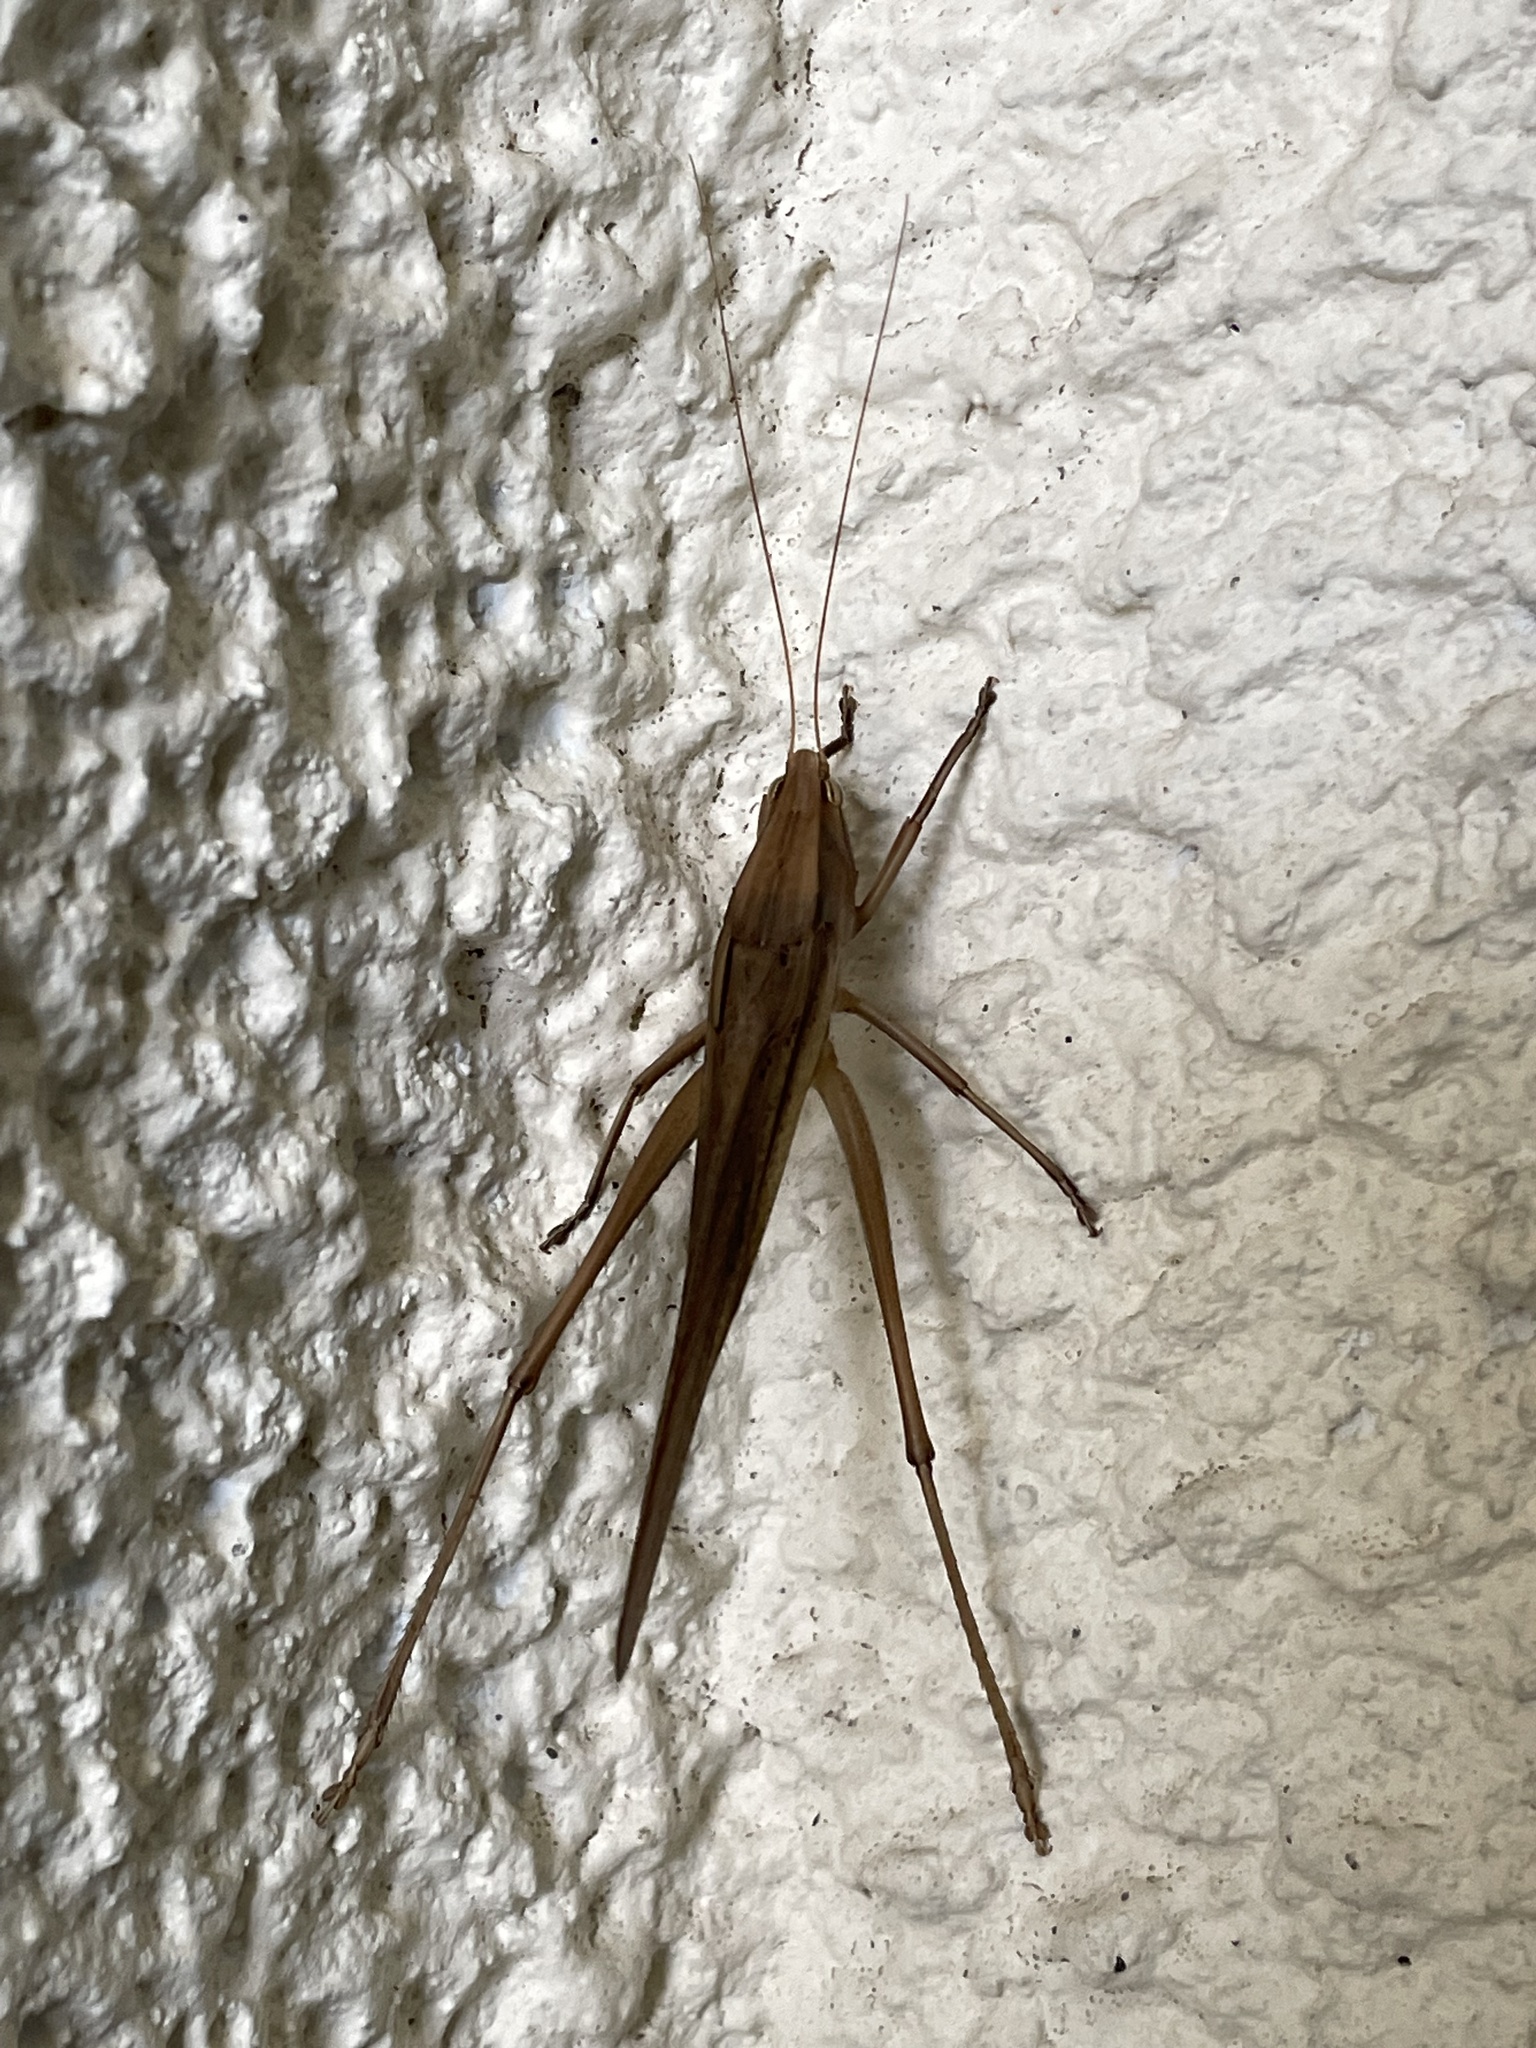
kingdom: Animalia
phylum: Arthropoda
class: Insecta
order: Orthoptera
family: Tettigoniidae
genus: Neoconocephalus
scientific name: Neoconocephalus triops
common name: Broad-tipped conehead
